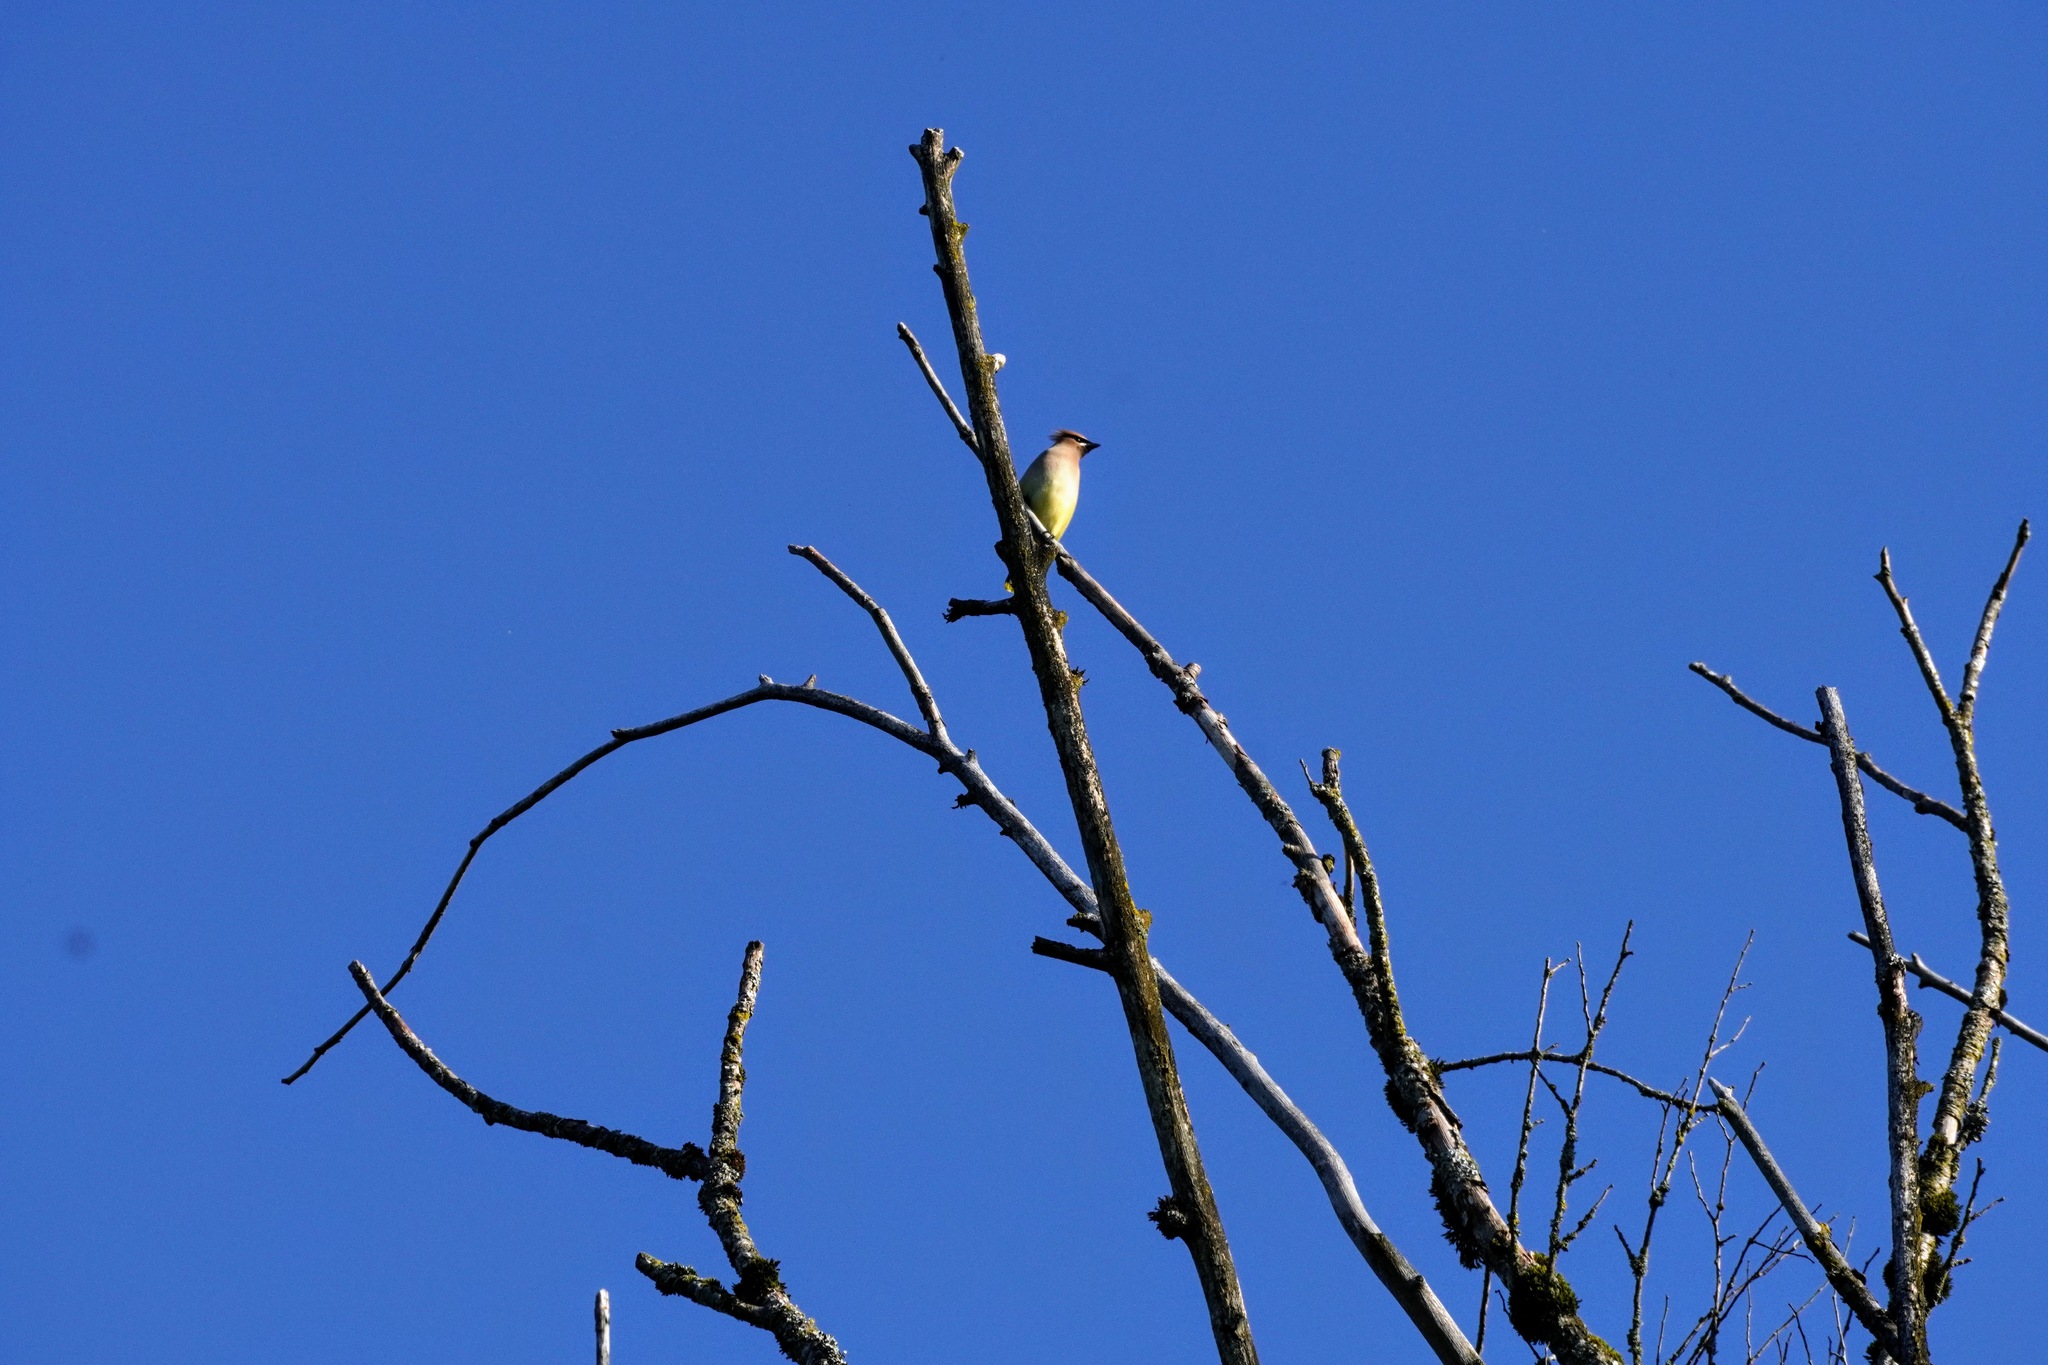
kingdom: Animalia
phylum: Chordata
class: Aves
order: Passeriformes
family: Bombycillidae
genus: Bombycilla
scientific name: Bombycilla cedrorum
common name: Cedar waxwing
